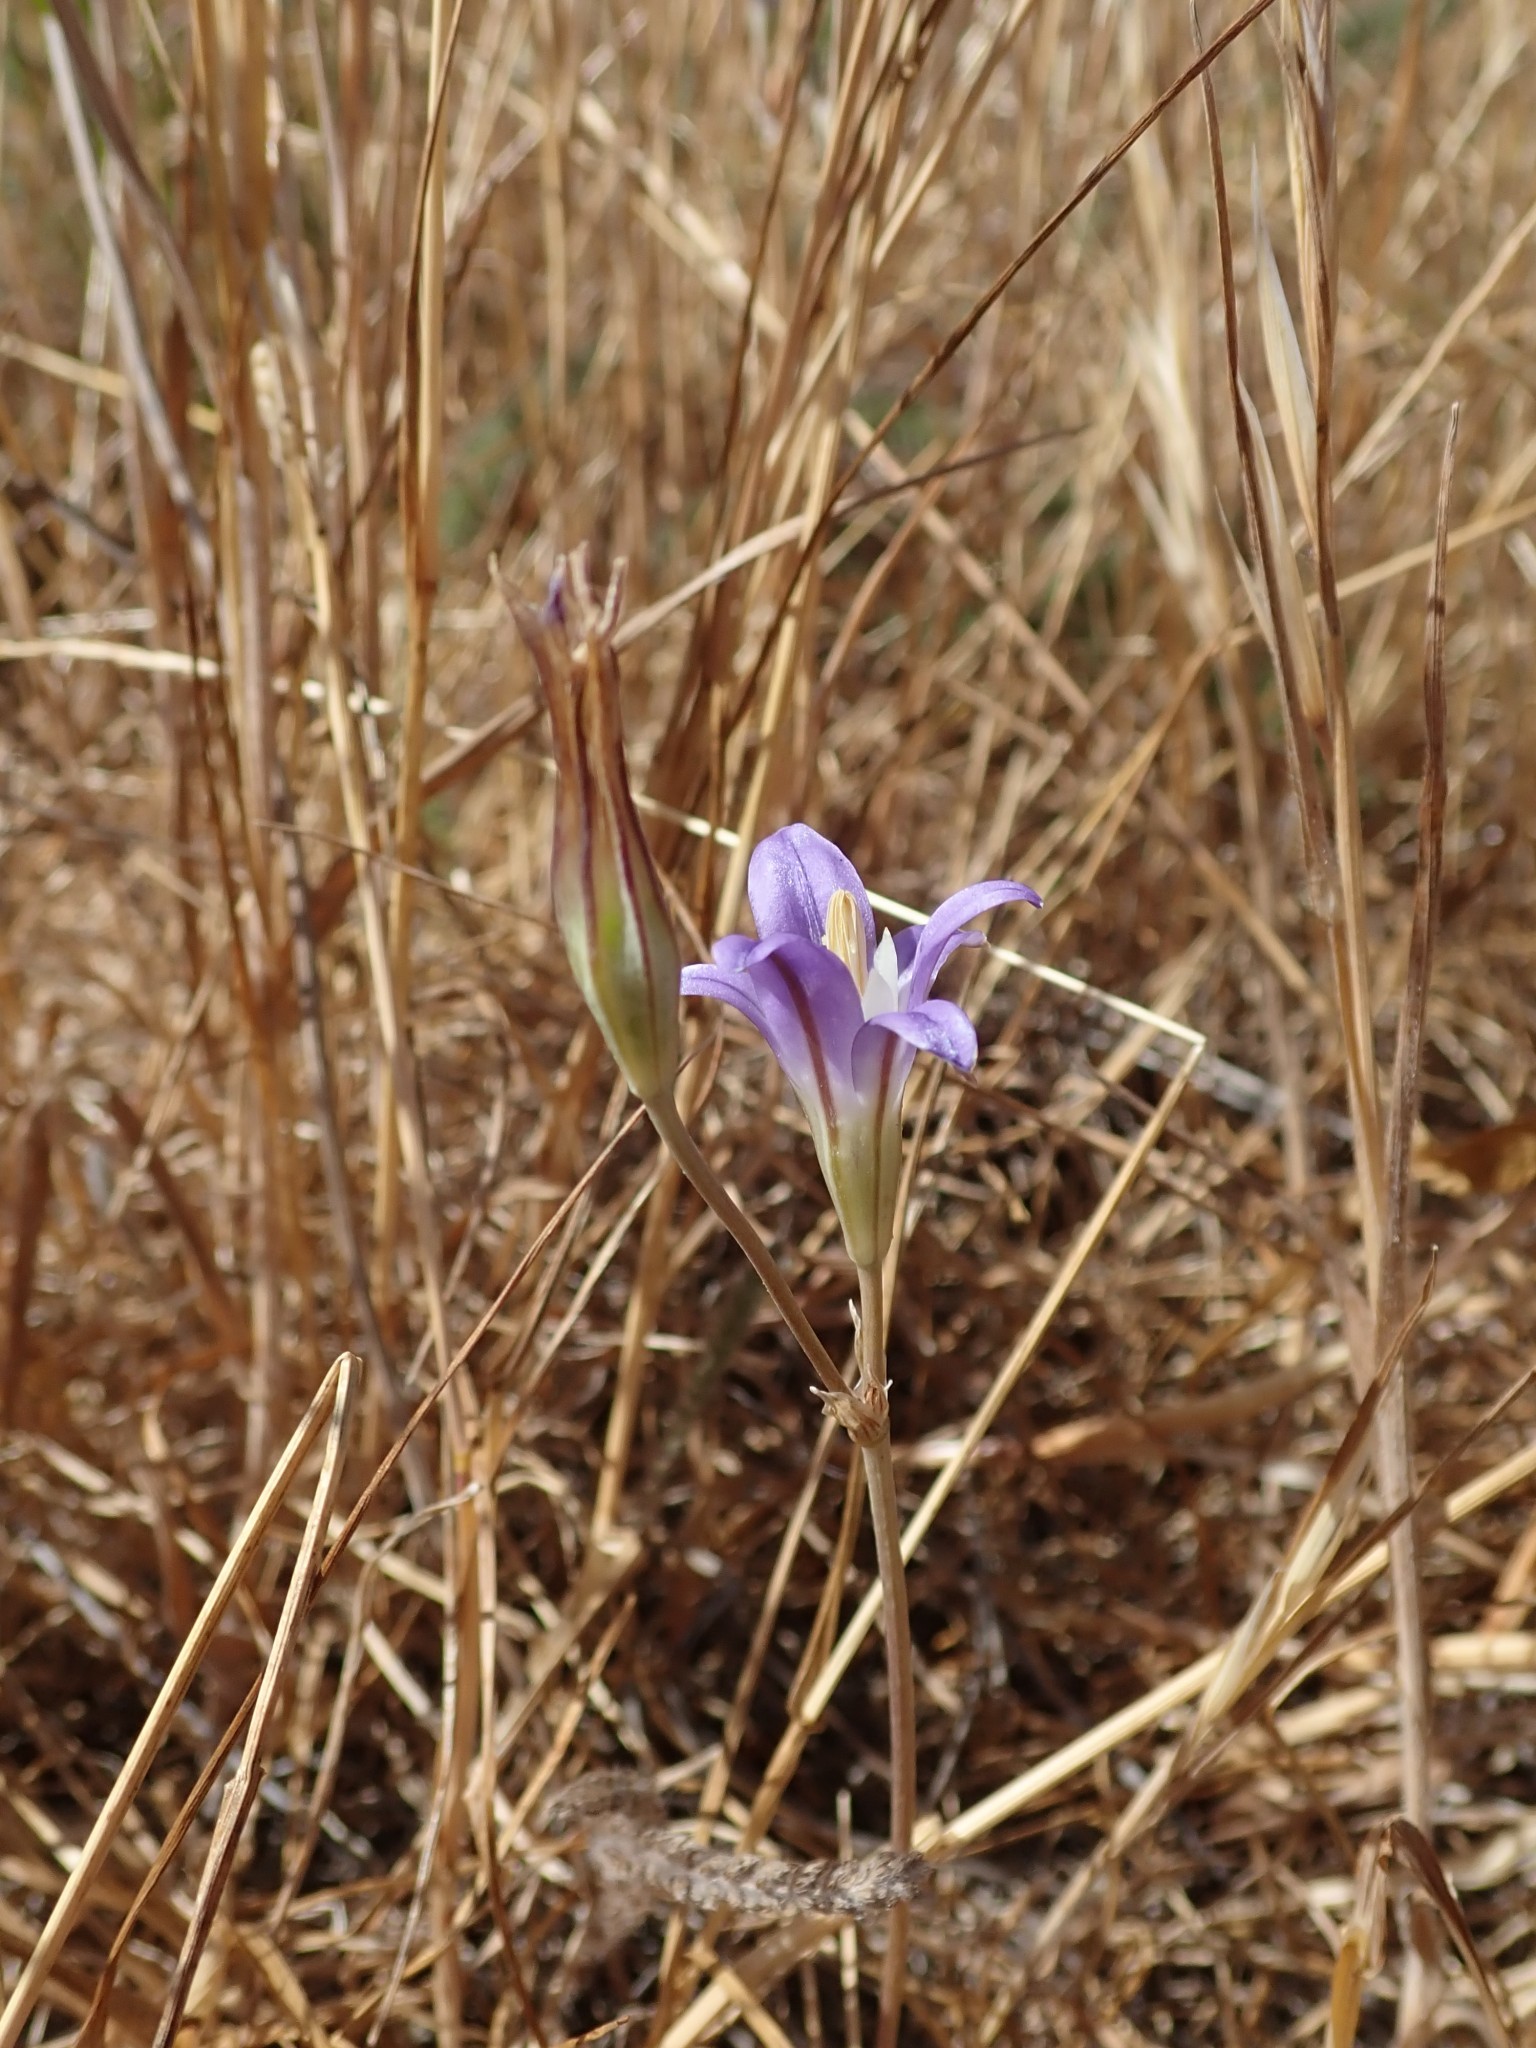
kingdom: Plantae
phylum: Tracheophyta
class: Liliopsida
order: Asparagales
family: Asparagaceae
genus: Brodiaea
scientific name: Brodiaea elegans
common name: Elegant cluster-lily
